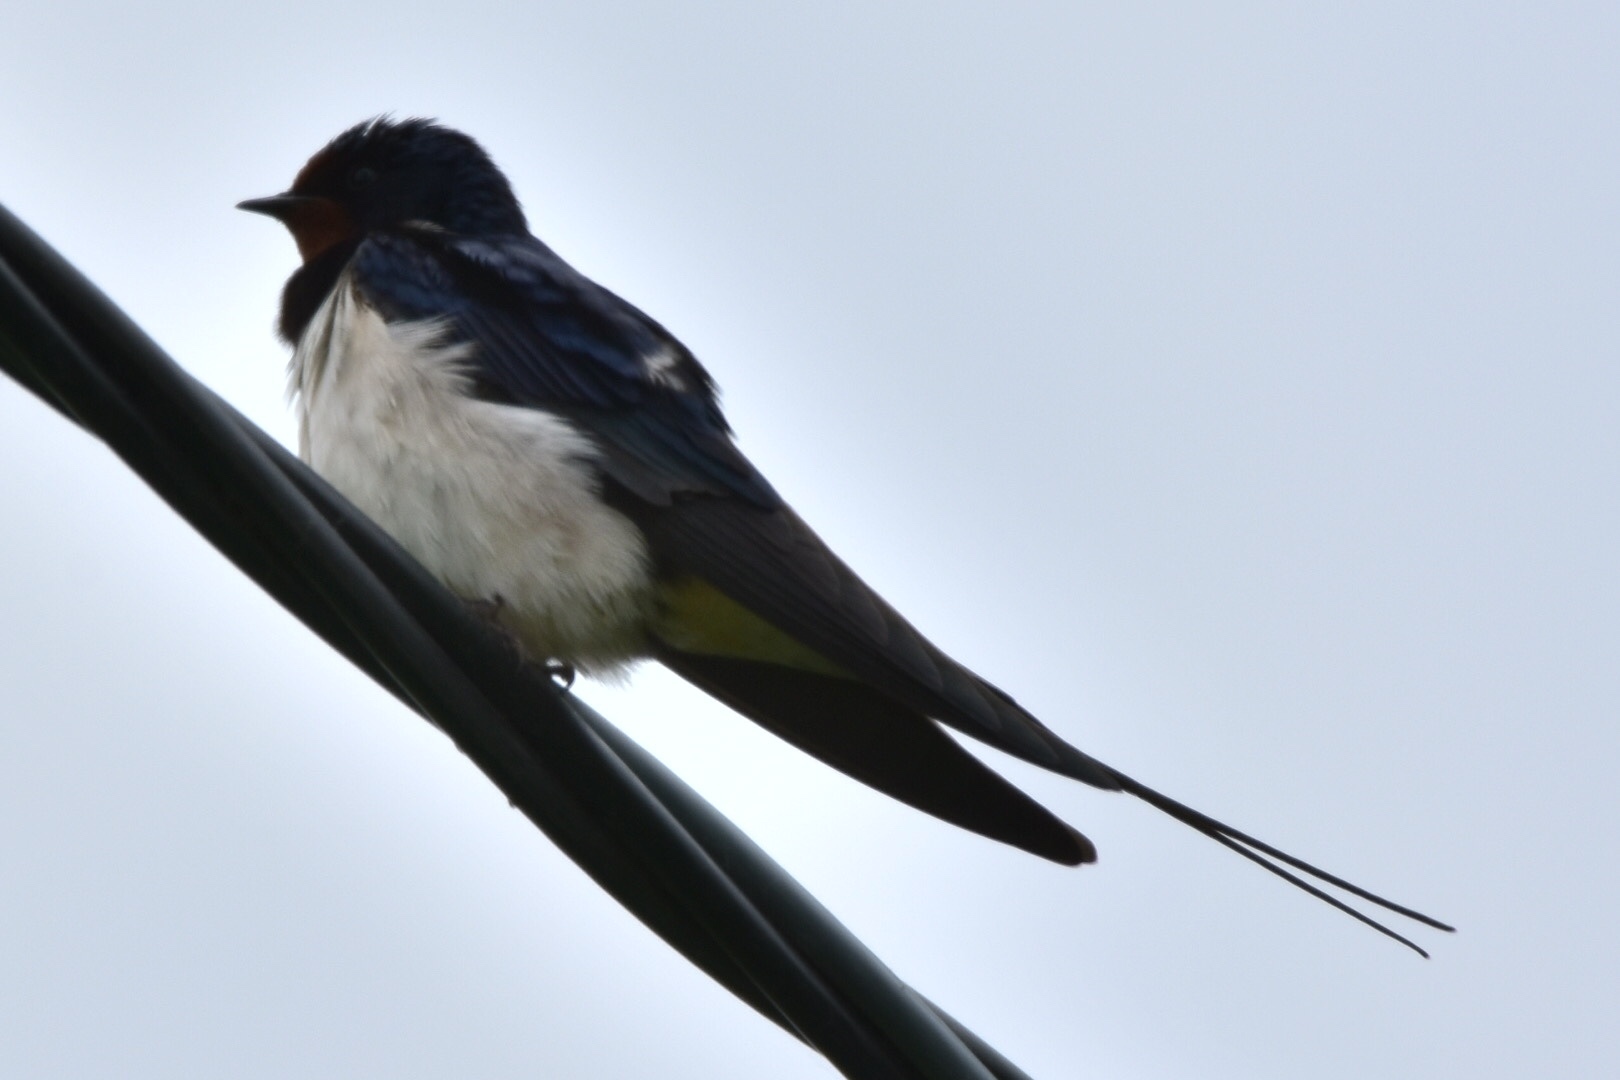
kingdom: Animalia
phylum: Chordata
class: Aves
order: Passeriformes
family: Hirundinidae
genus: Hirundo
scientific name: Hirundo rustica
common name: Barn swallow
